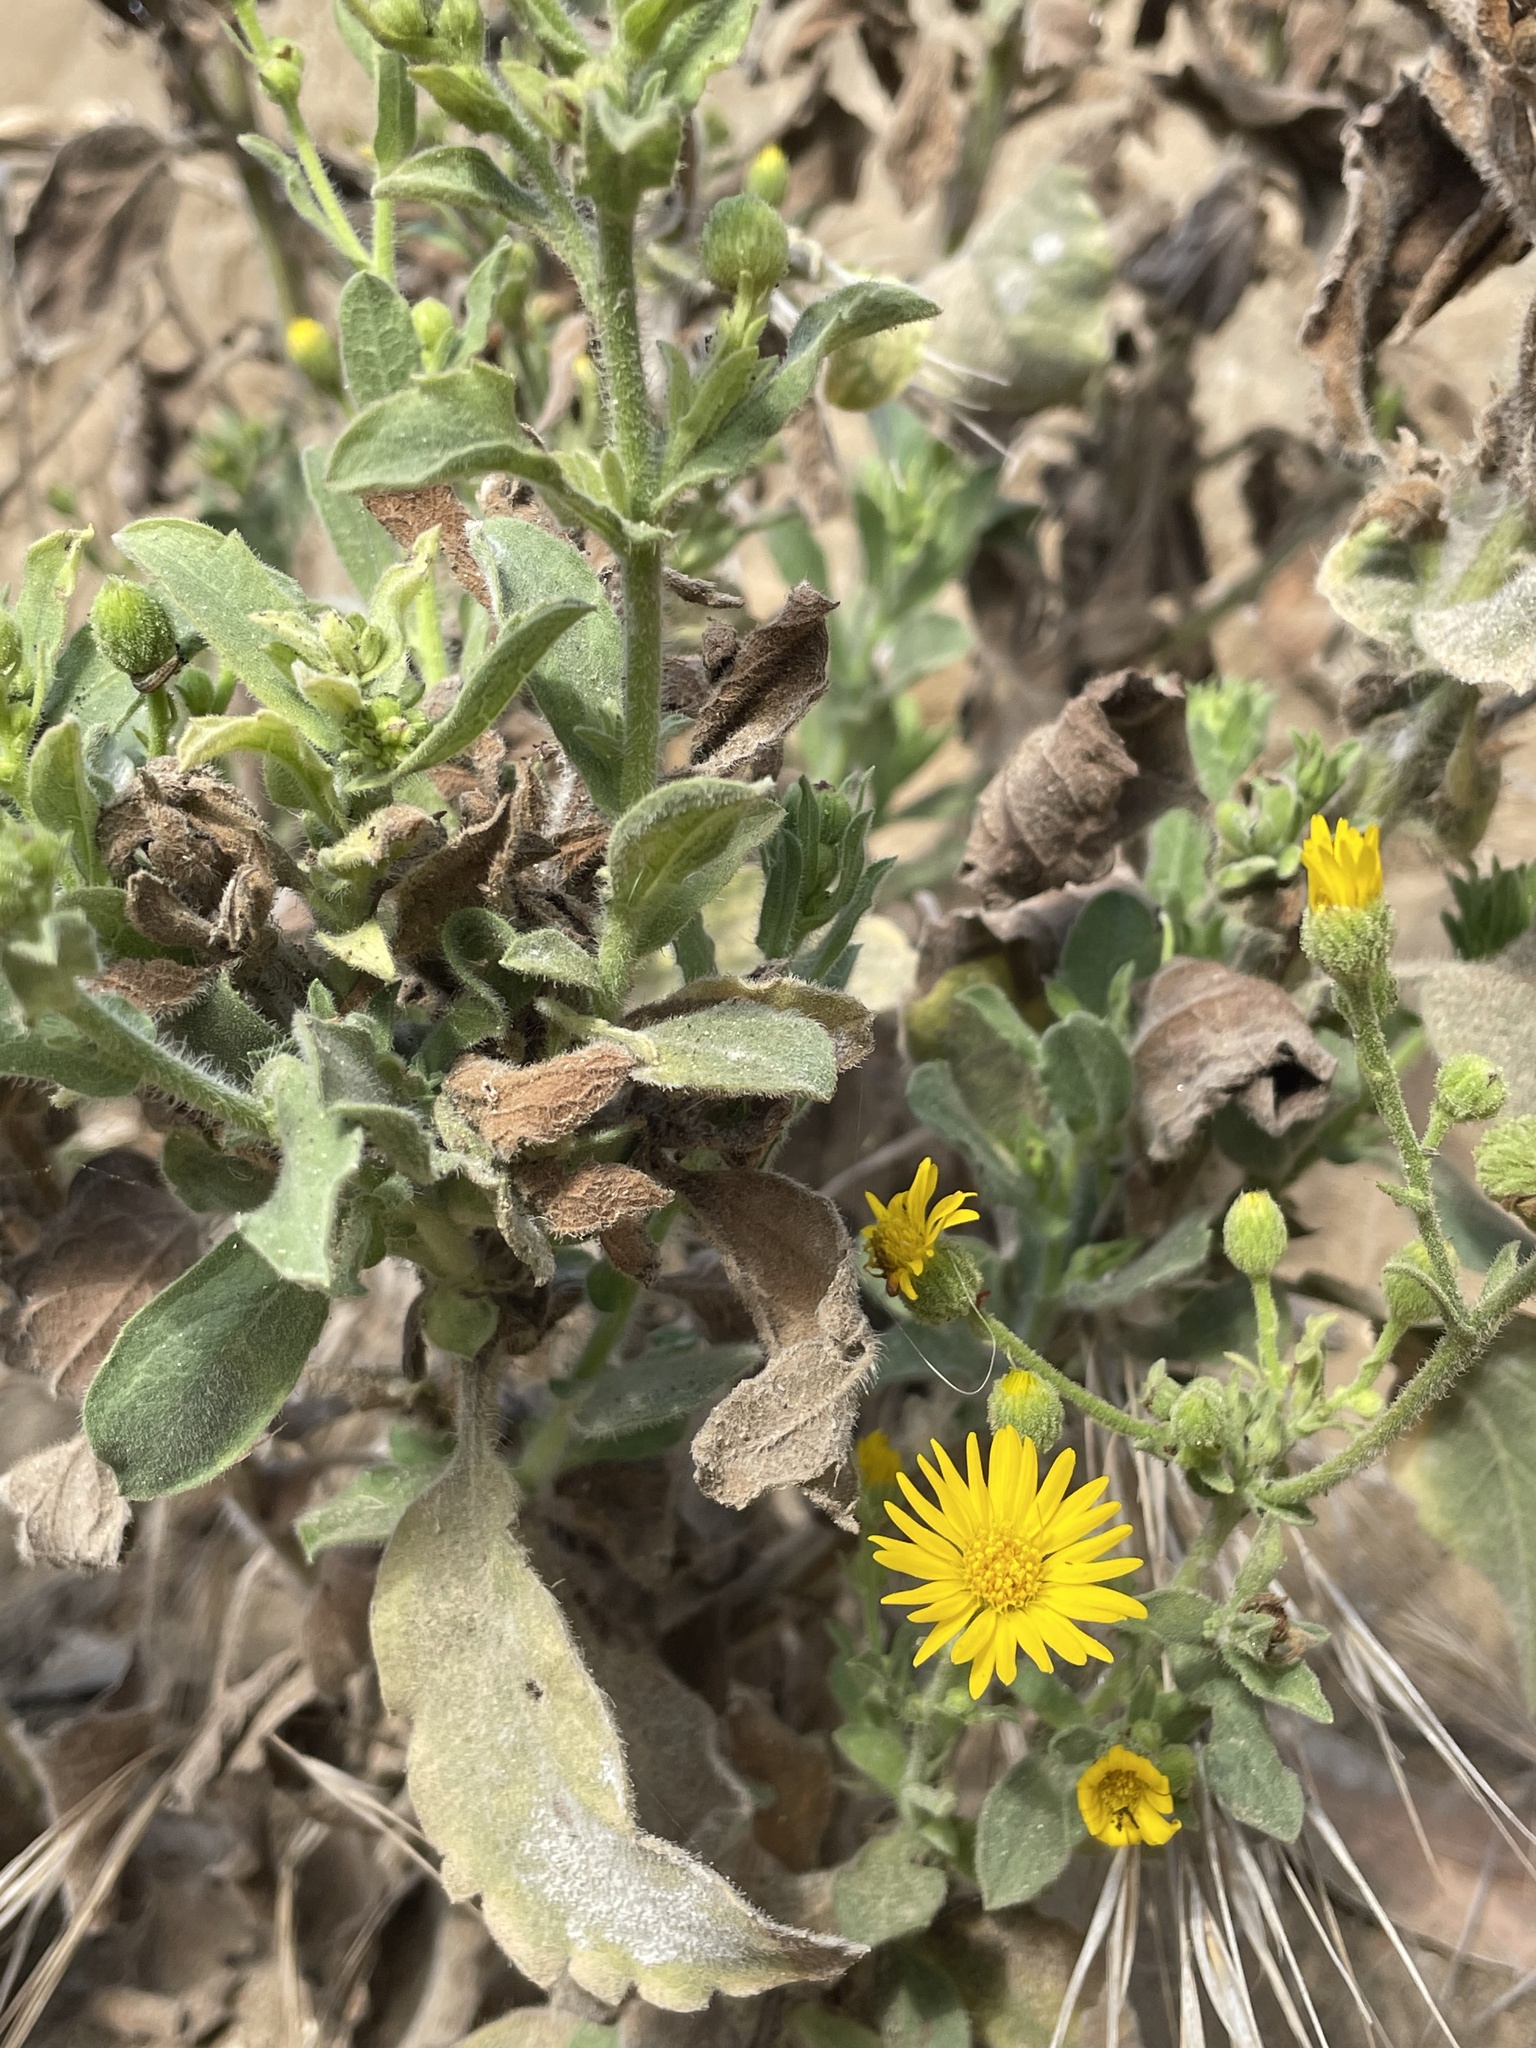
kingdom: Plantae
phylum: Tracheophyta
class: Magnoliopsida
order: Asterales
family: Asteraceae
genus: Heterotheca
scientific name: Heterotheca grandiflora
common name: Telegraphweed
